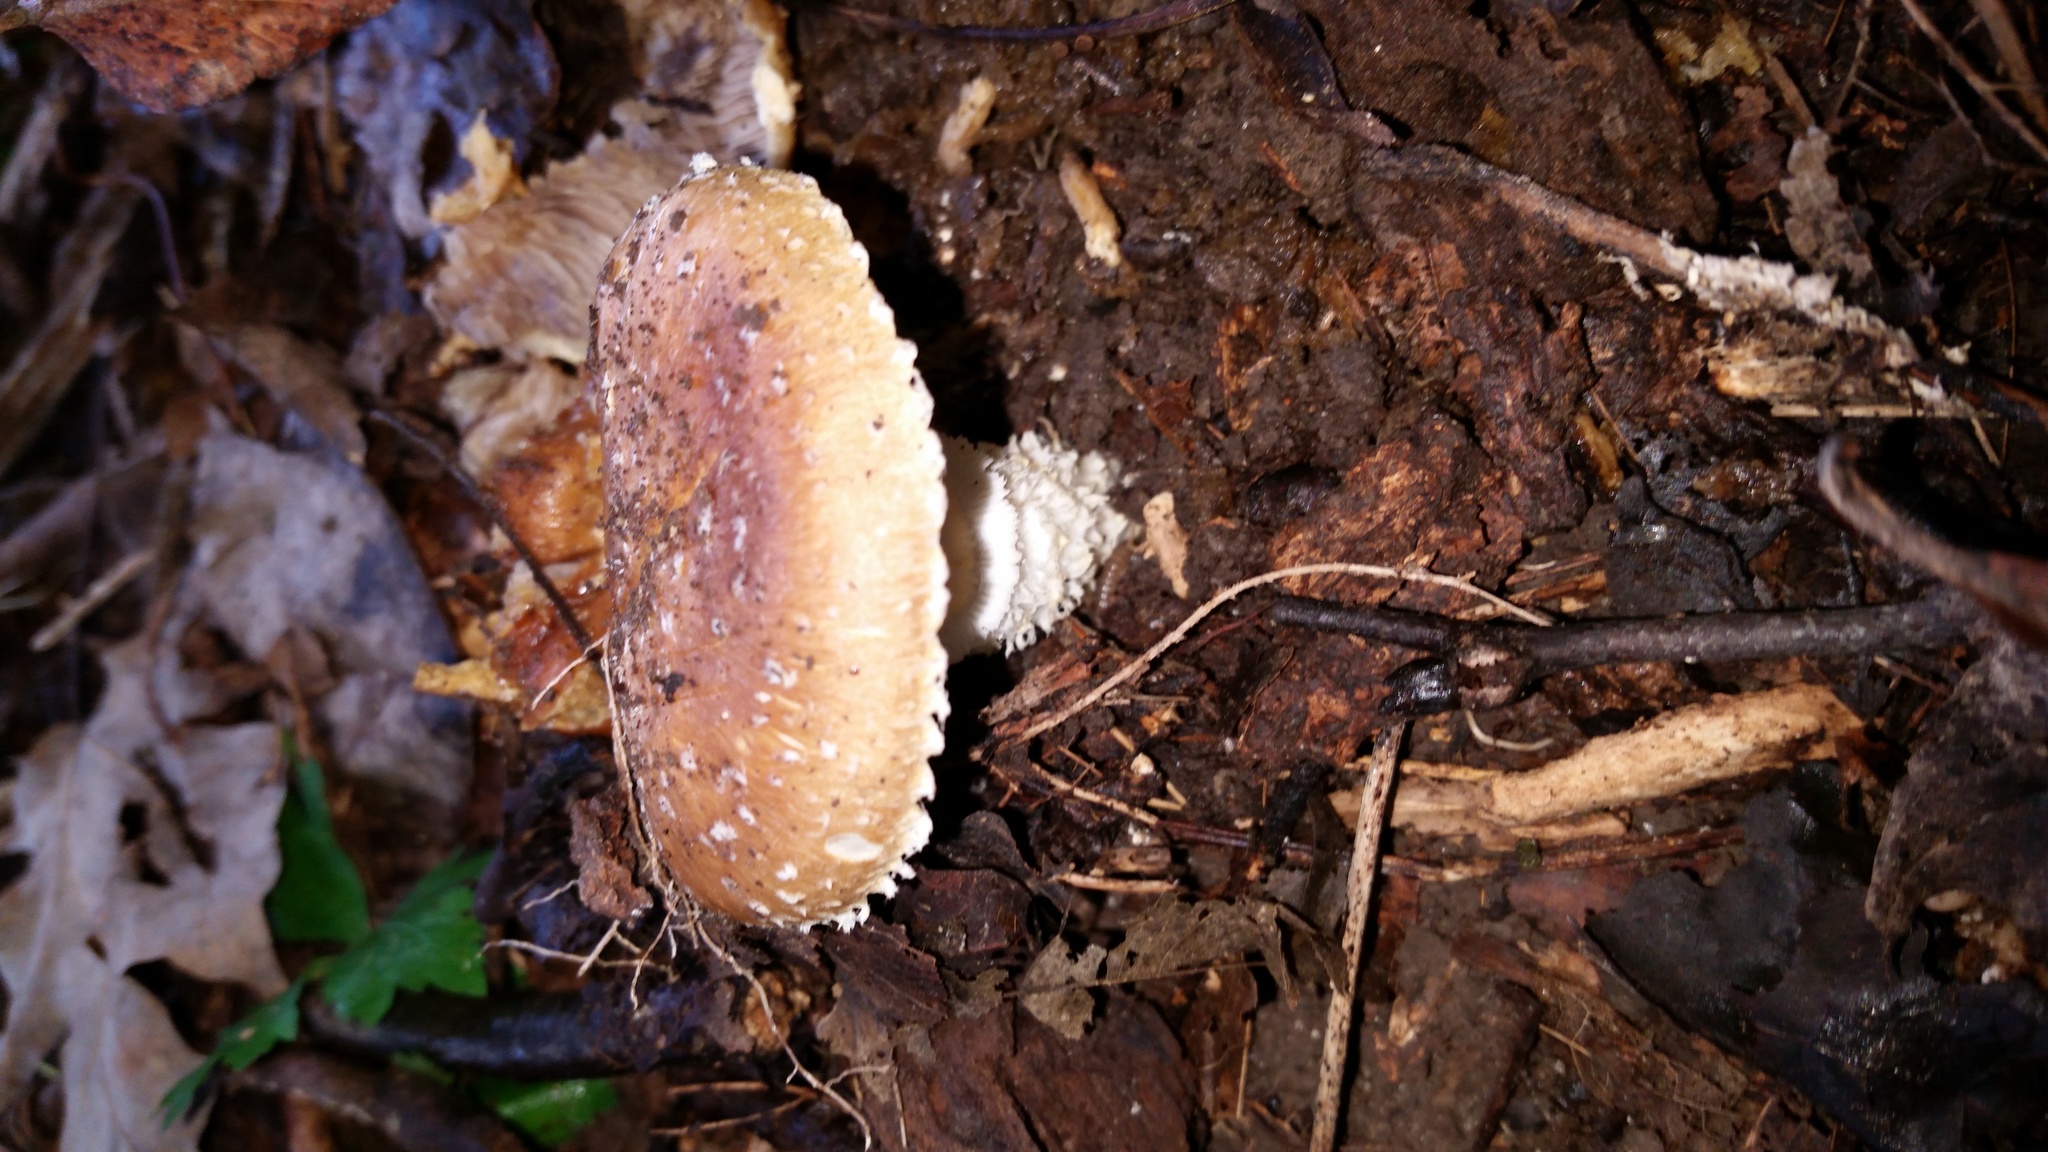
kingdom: Fungi
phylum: Basidiomycota
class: Agaricomycetes
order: Agaricales
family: Strophariaceae
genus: Stropharia
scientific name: Stropharia kauffmanii
